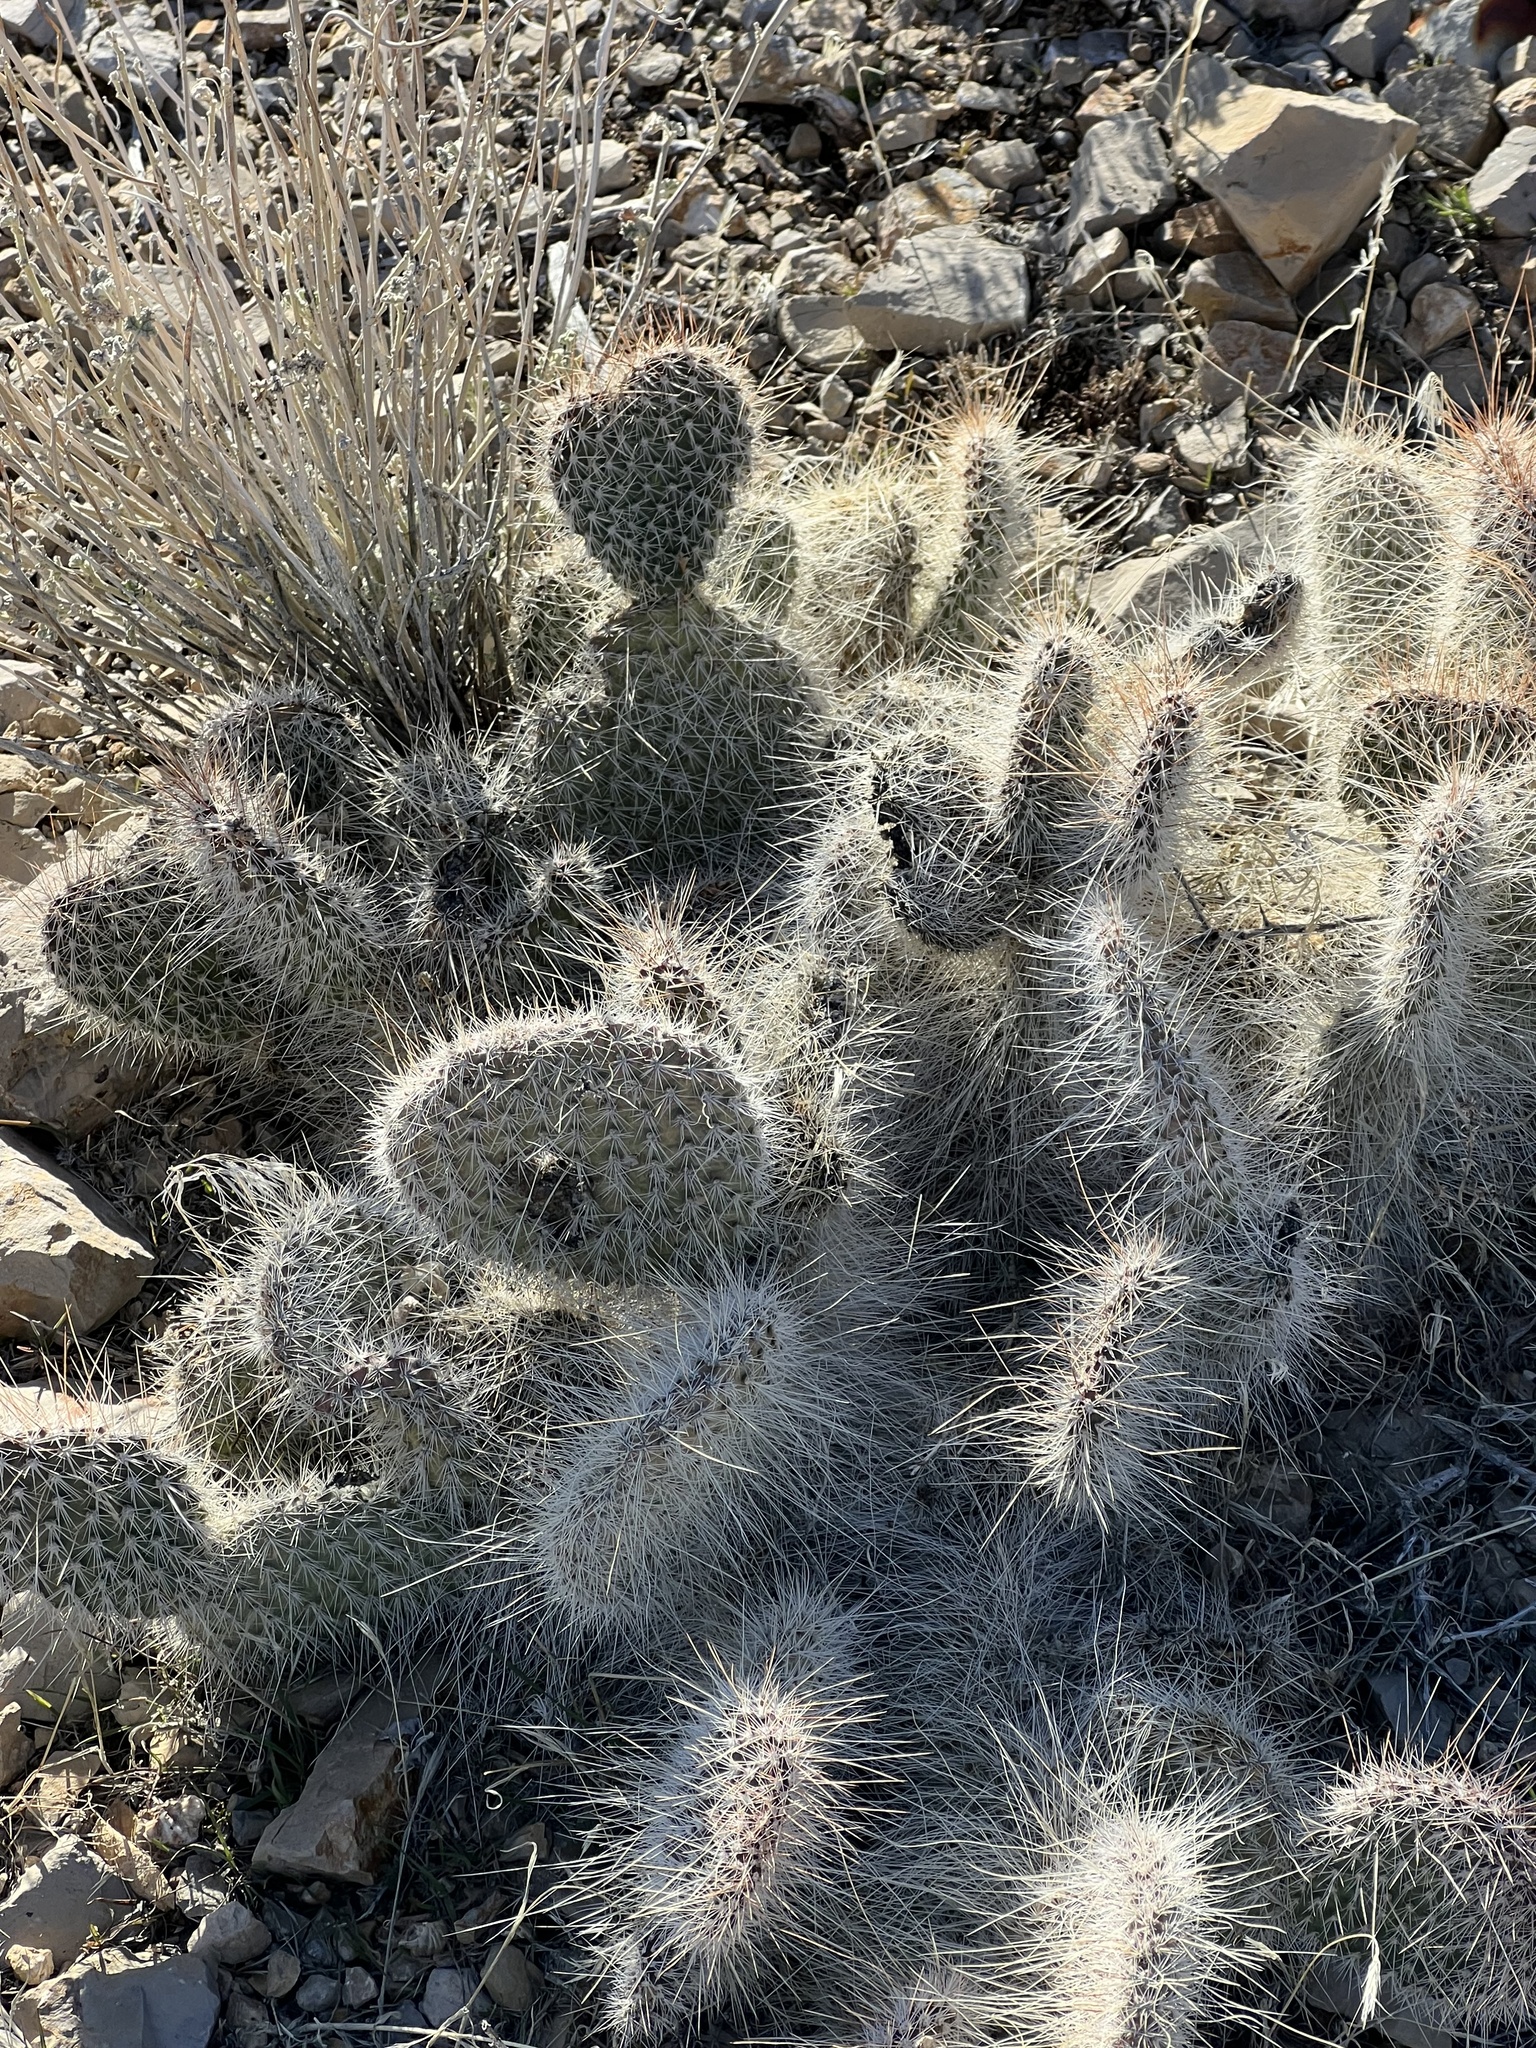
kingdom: Plantae
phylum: Tracheophyta
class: Magnoliopsida
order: Caryophyllales
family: Cactaceae
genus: Opuntia
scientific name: Opuntia polyacantha
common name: Plains prickly-pear
